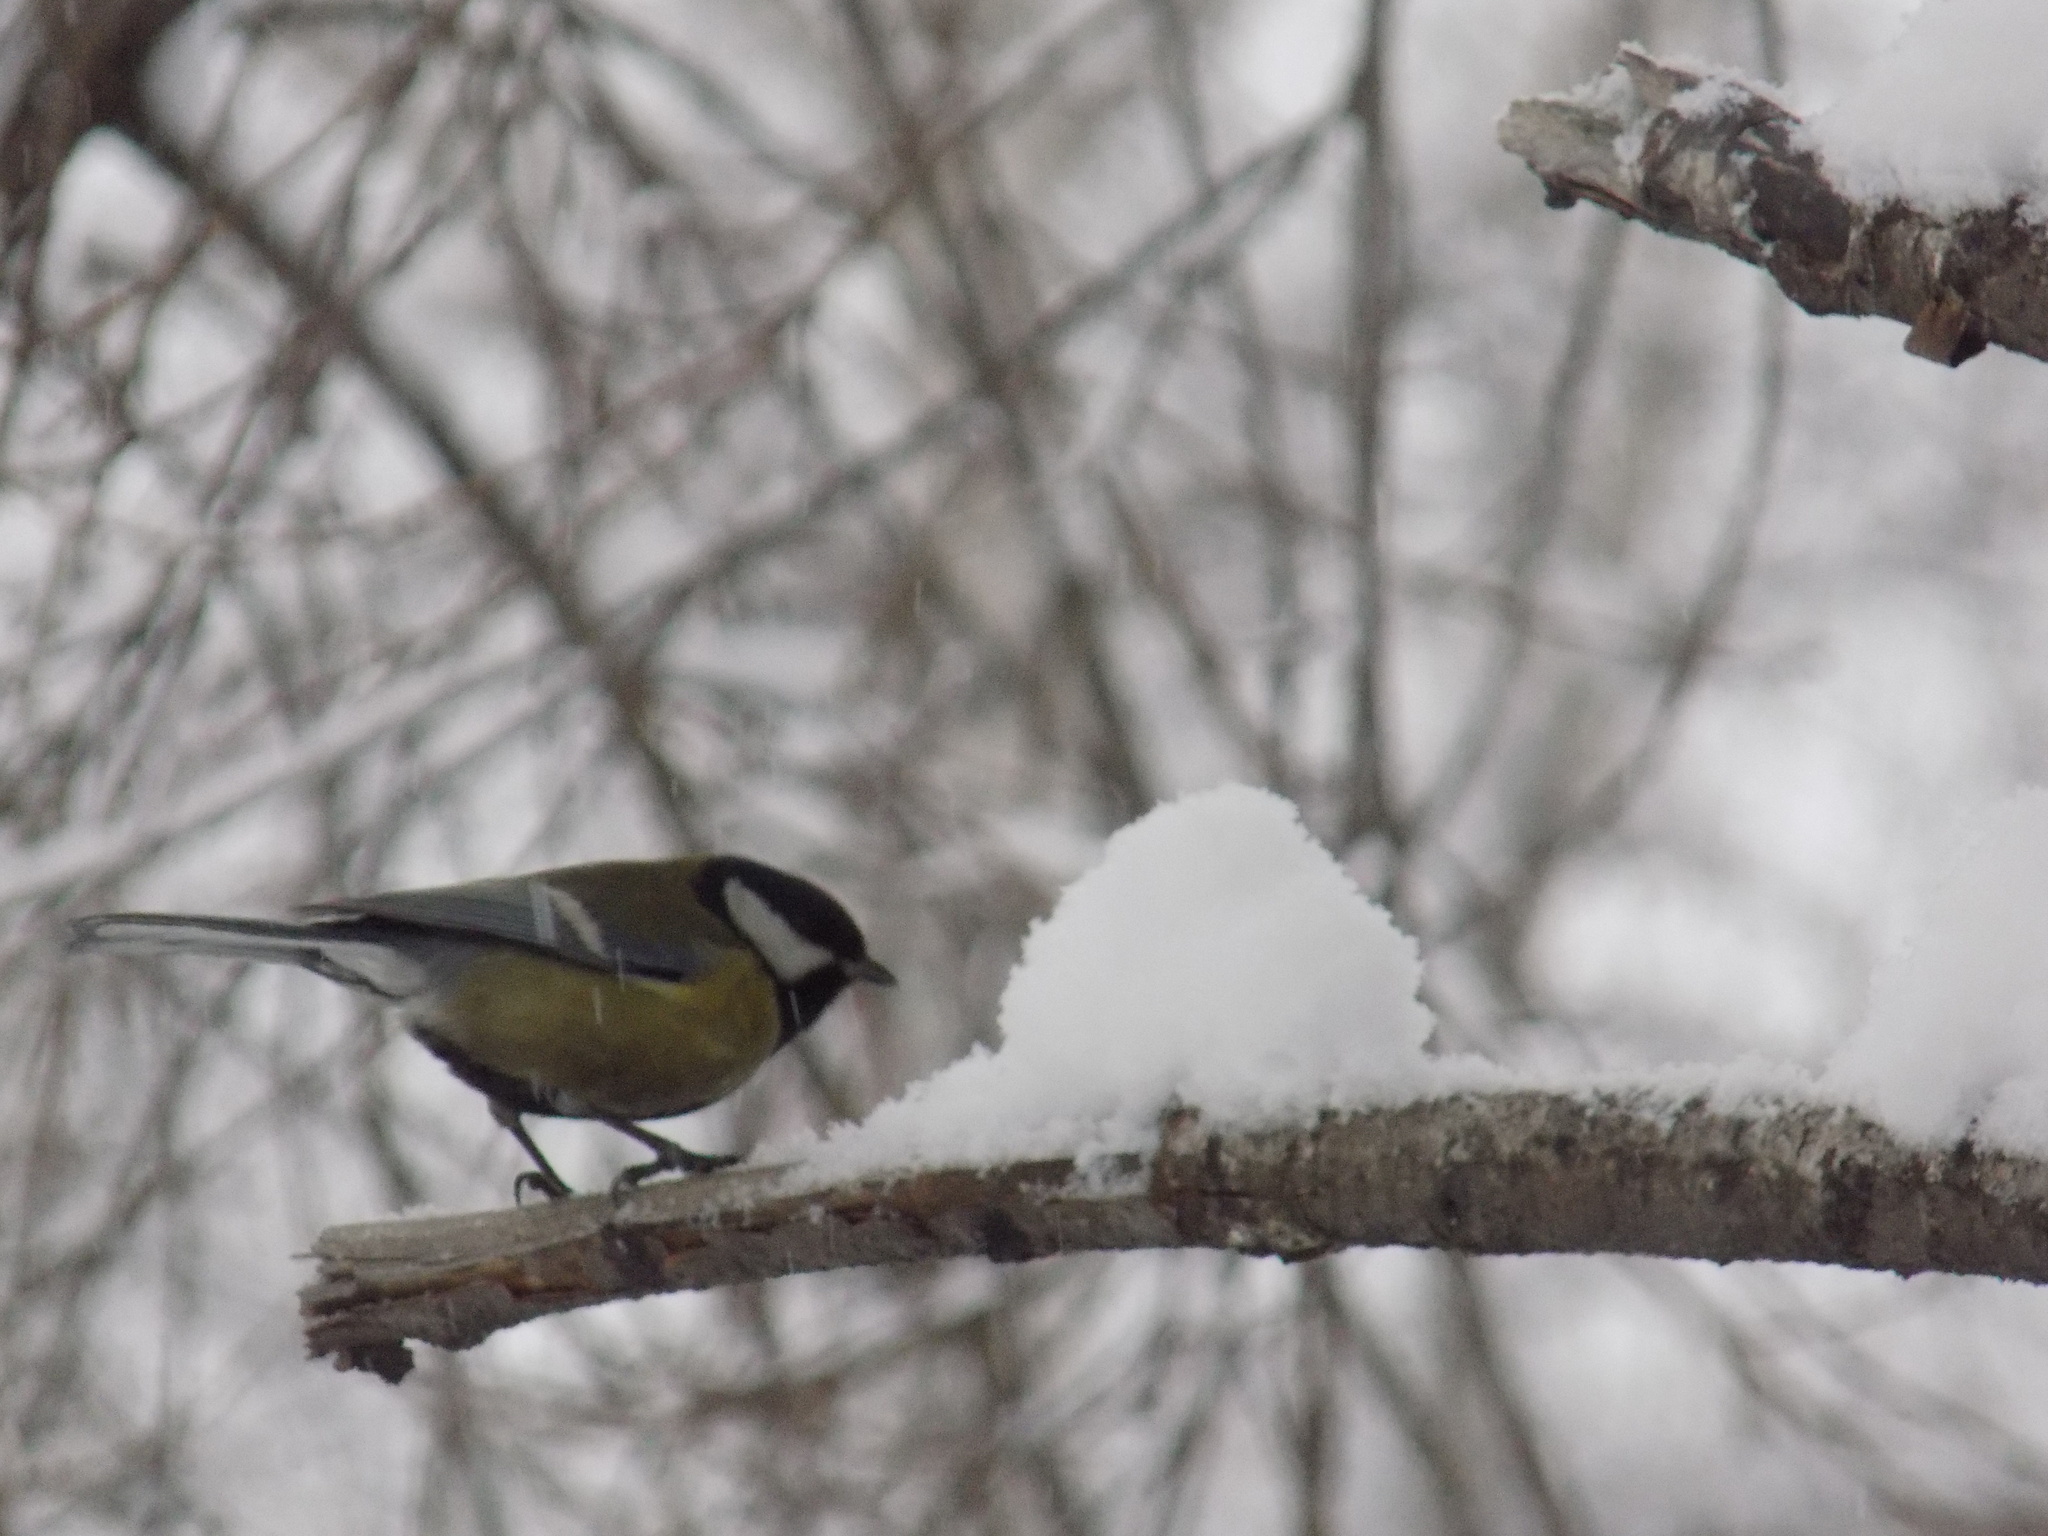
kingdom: Animalia
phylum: Chordata
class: Aves
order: Passeriformes
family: Paridae
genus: Parus
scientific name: Parus major
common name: Great tit
